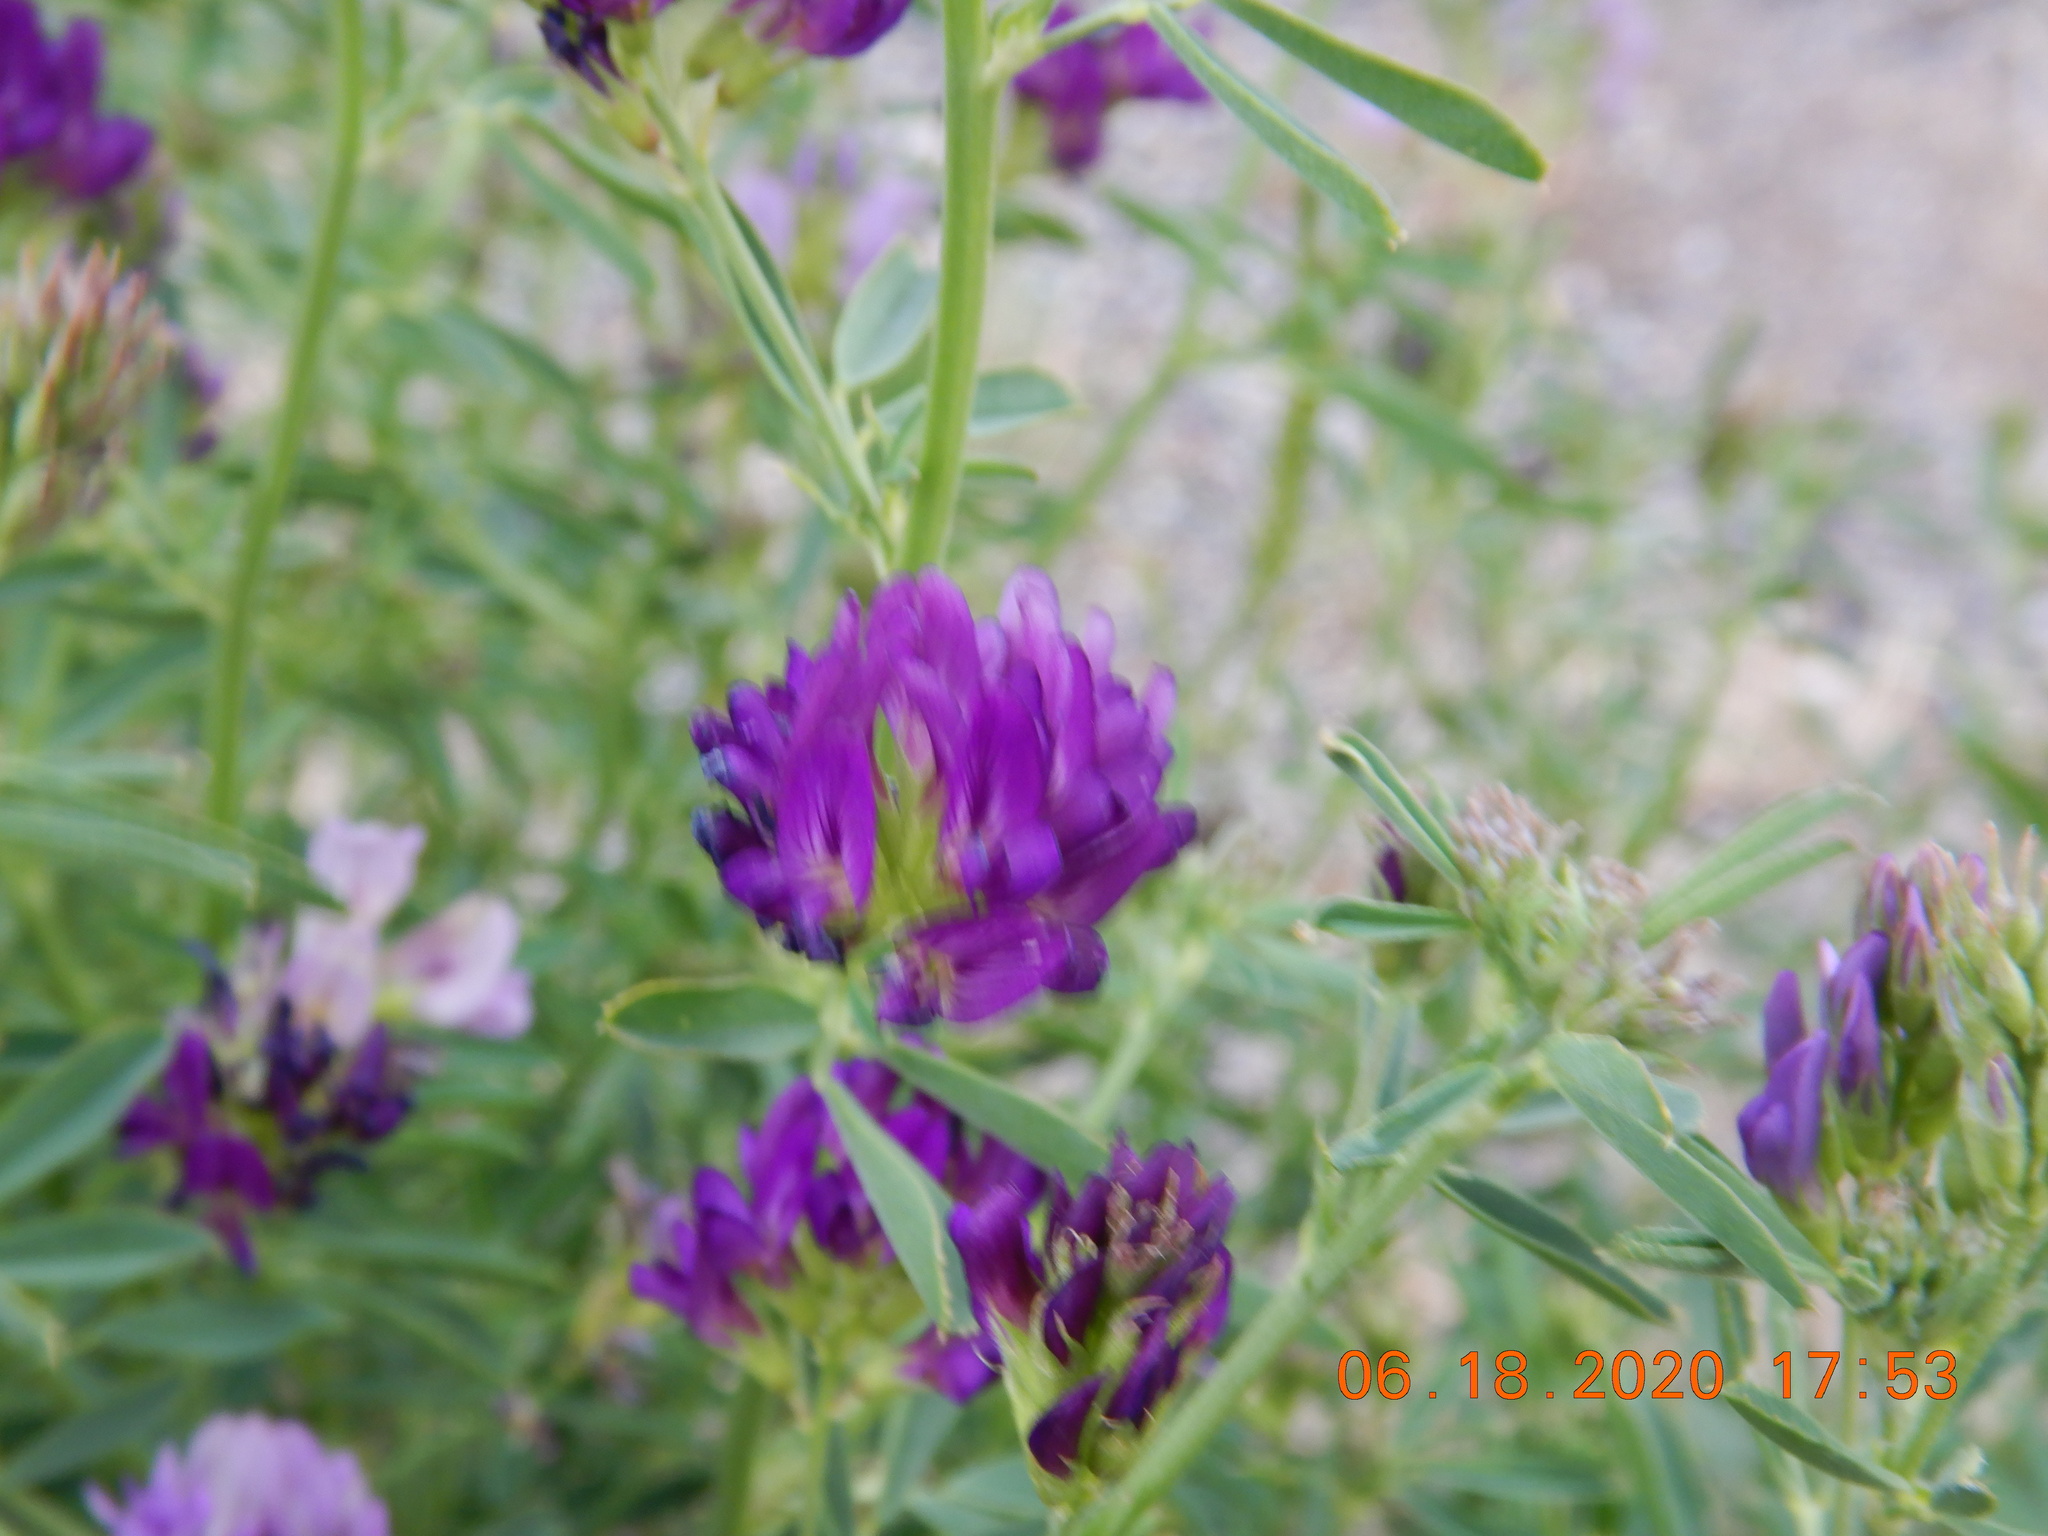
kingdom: Plantae
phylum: Tracheophyta
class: Magnoliopsida
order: Fabales
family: Fabaceae
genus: Medicago
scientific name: Medicago sativa
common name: Alfalfa
